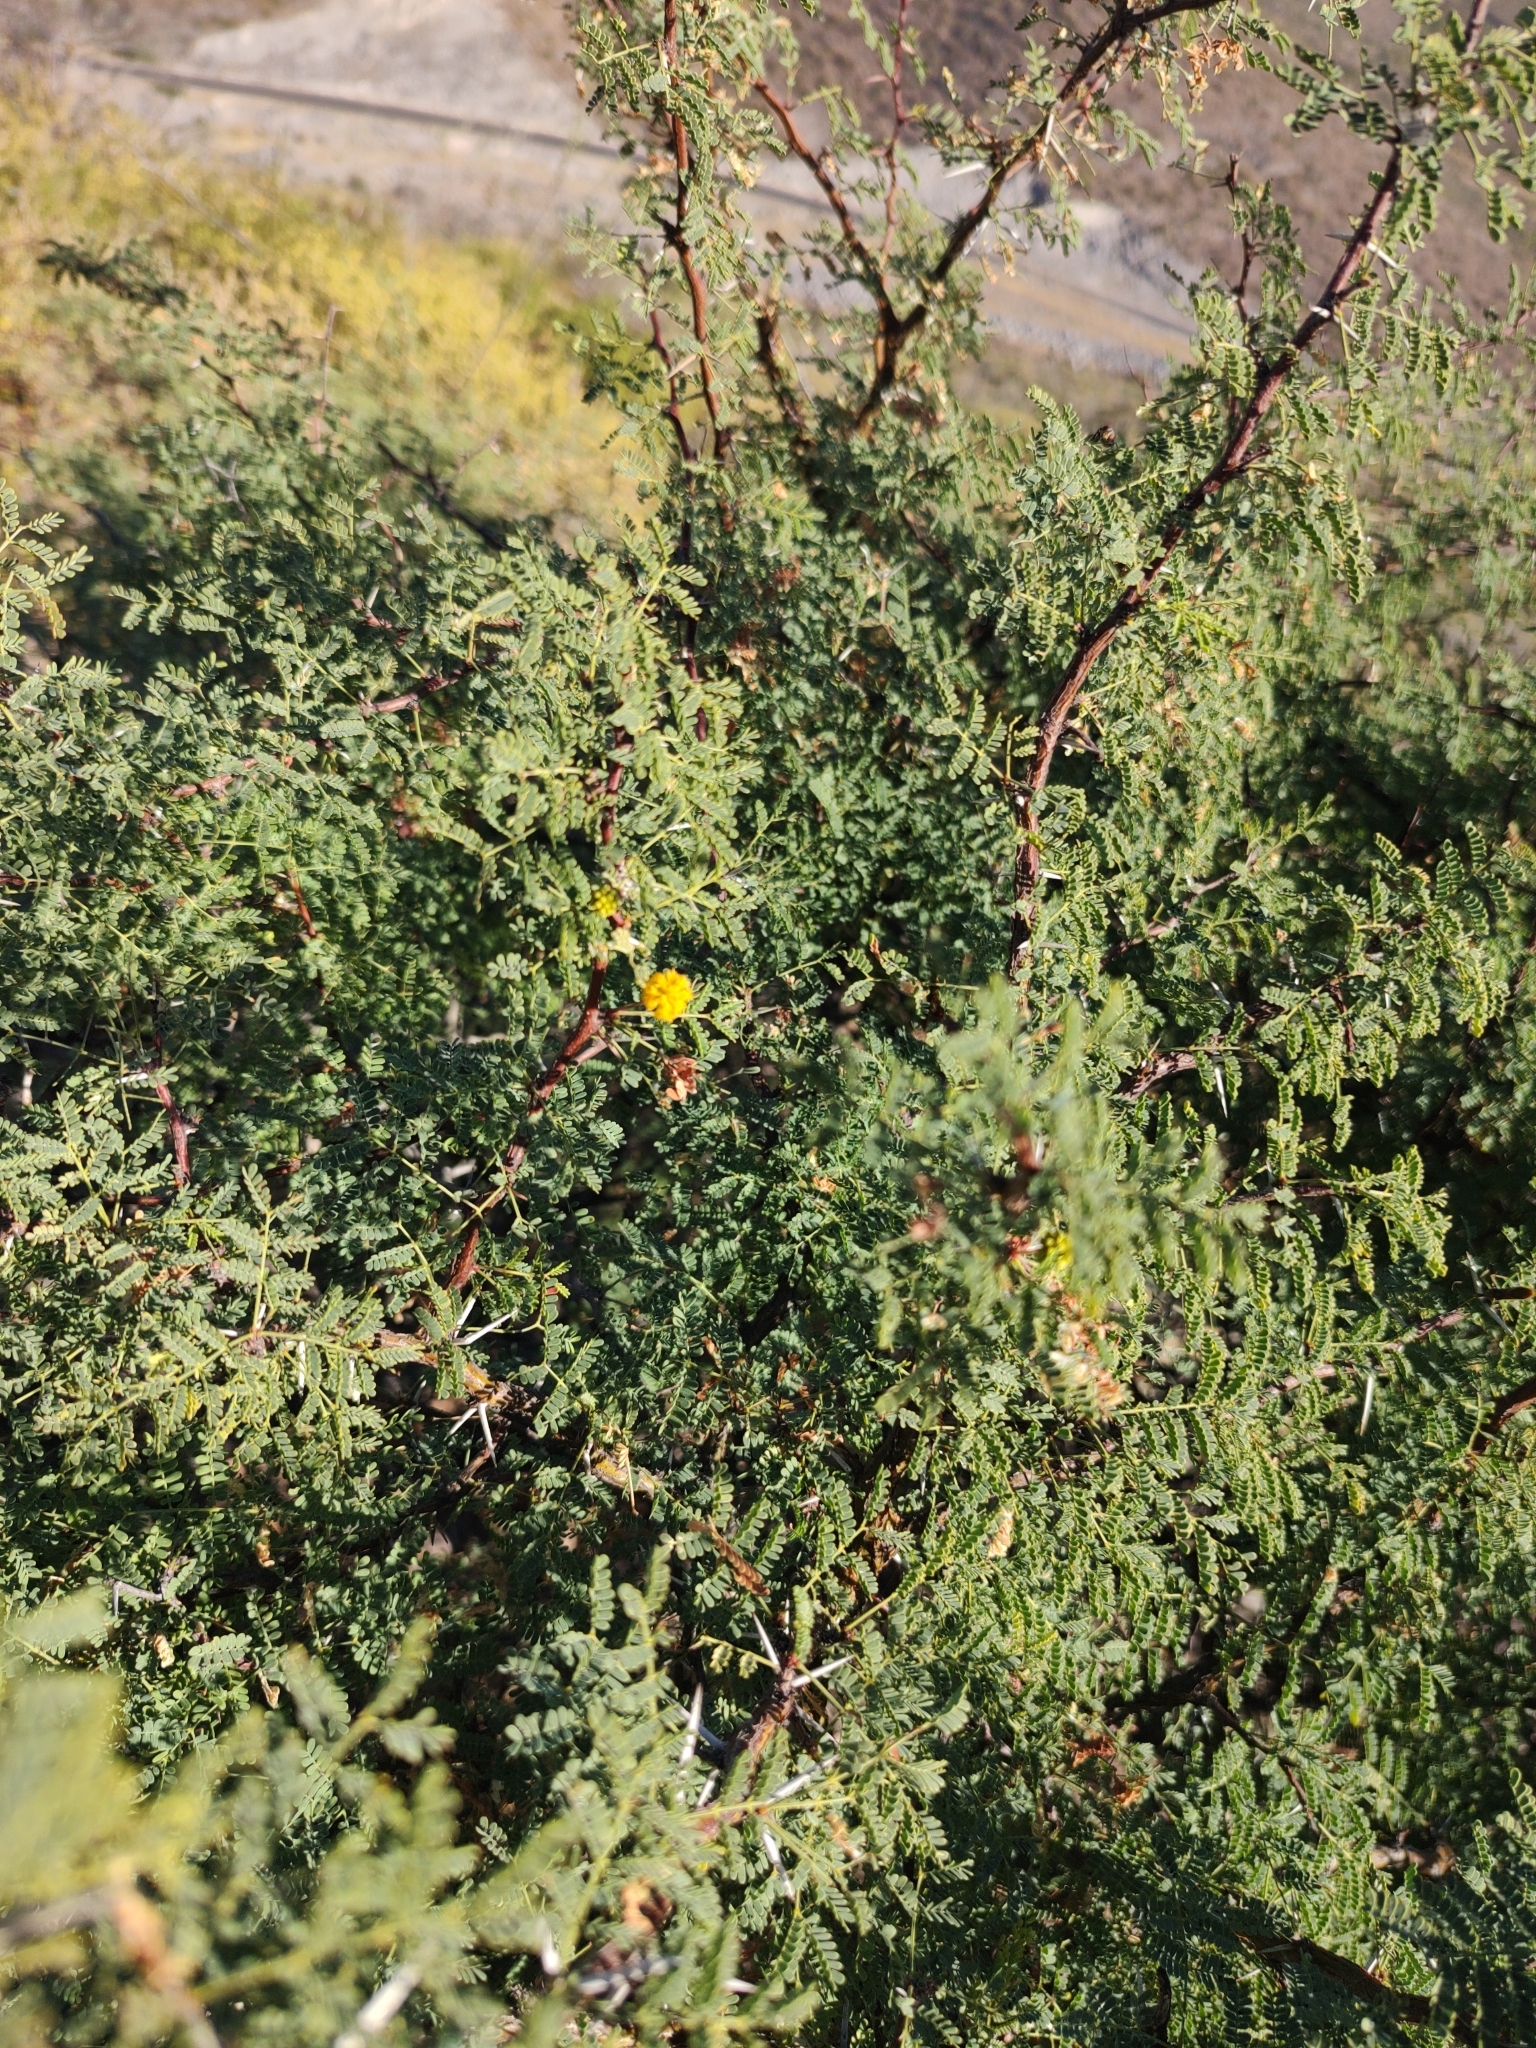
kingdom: Plantae
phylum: Tracheophyta
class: Magnoliopsida
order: Fabales
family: Fabaceae
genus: Vachellia
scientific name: Vachellia pacensis
